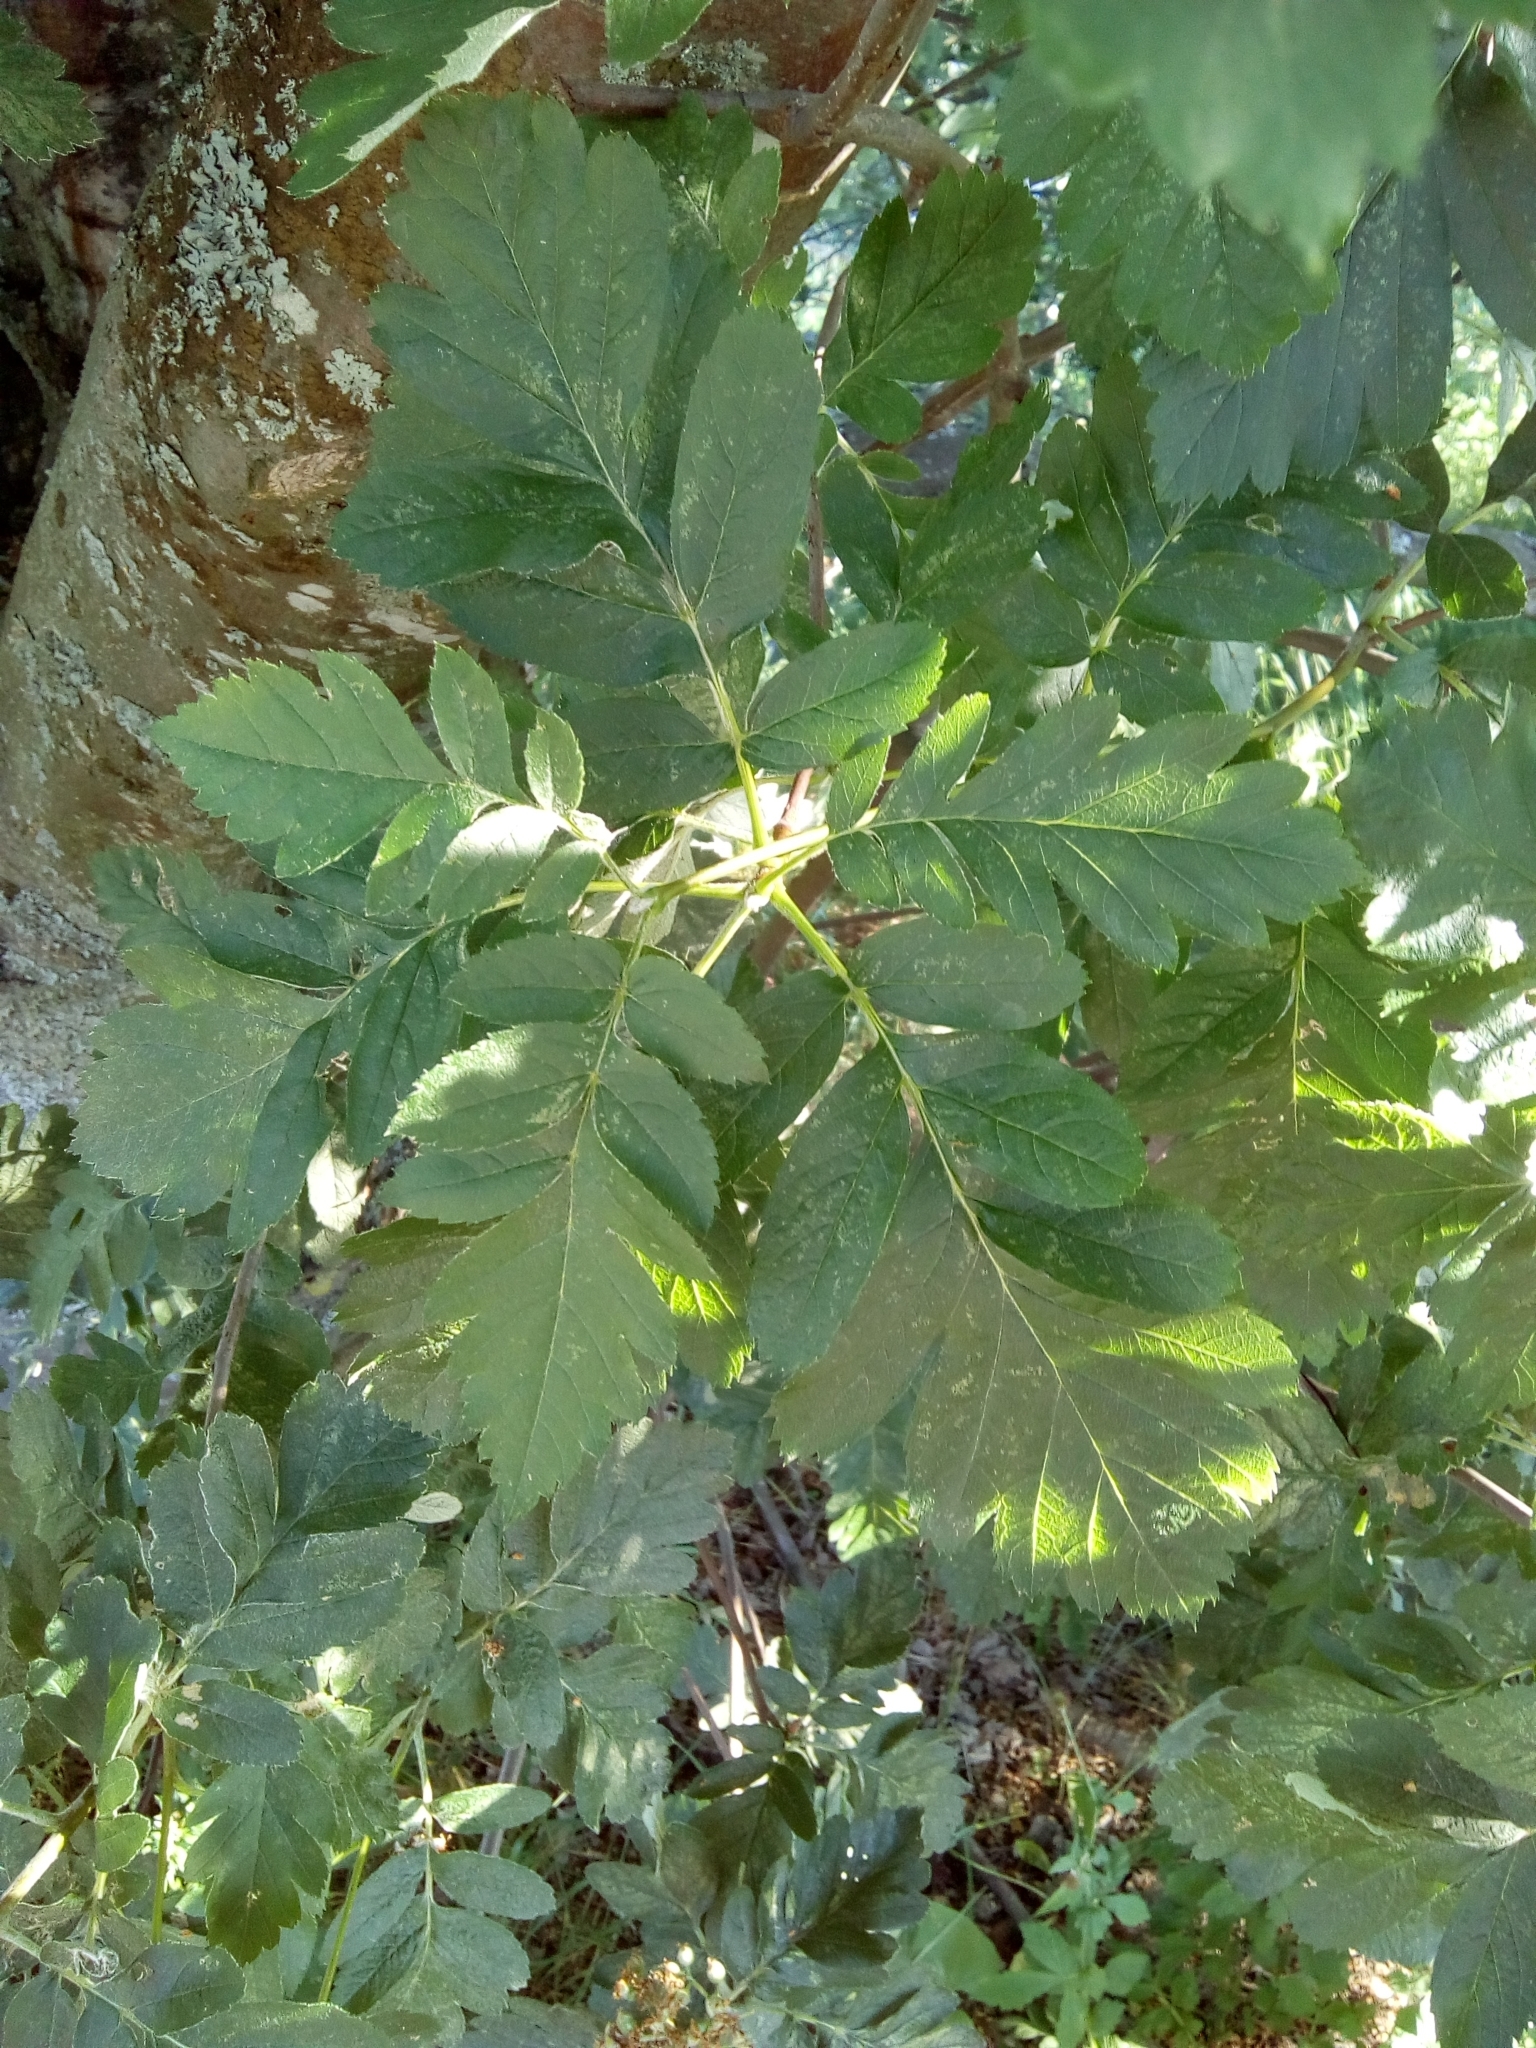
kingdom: Plantae
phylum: Tracheophyta
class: Magnoliopsida
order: Rosales
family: Rosaceae
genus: Hedlundia
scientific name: Hedlundia hybrida
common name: Swedish service-tree
